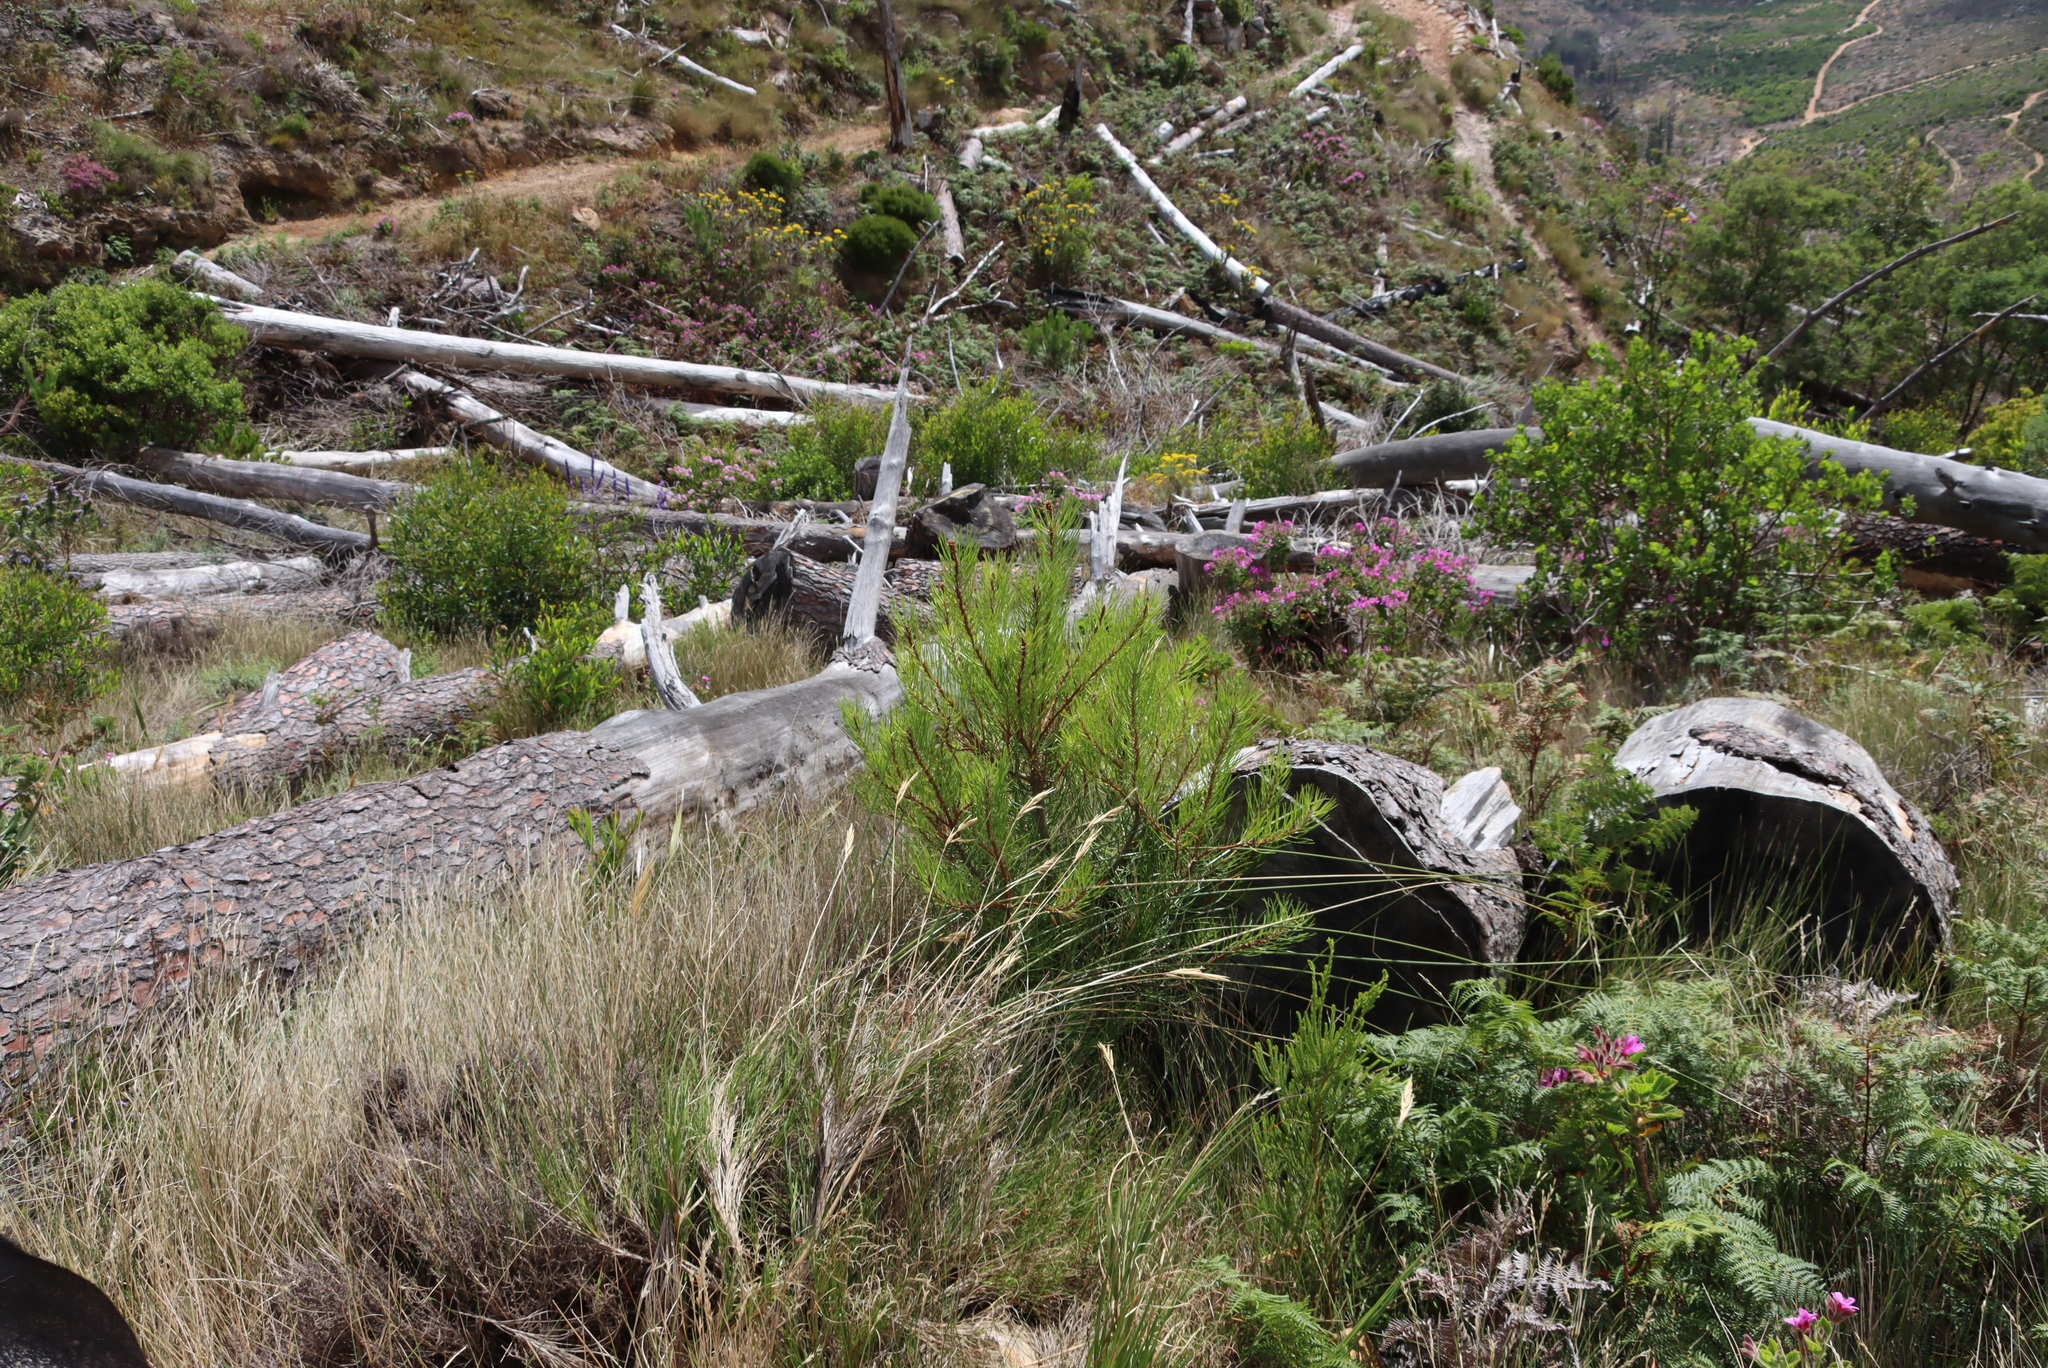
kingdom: Plantae
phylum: Tracheophyta
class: Pinopsida
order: Pinales
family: Pinaceae
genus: Pinus
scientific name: Pinus radiata
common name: Monterey pine
